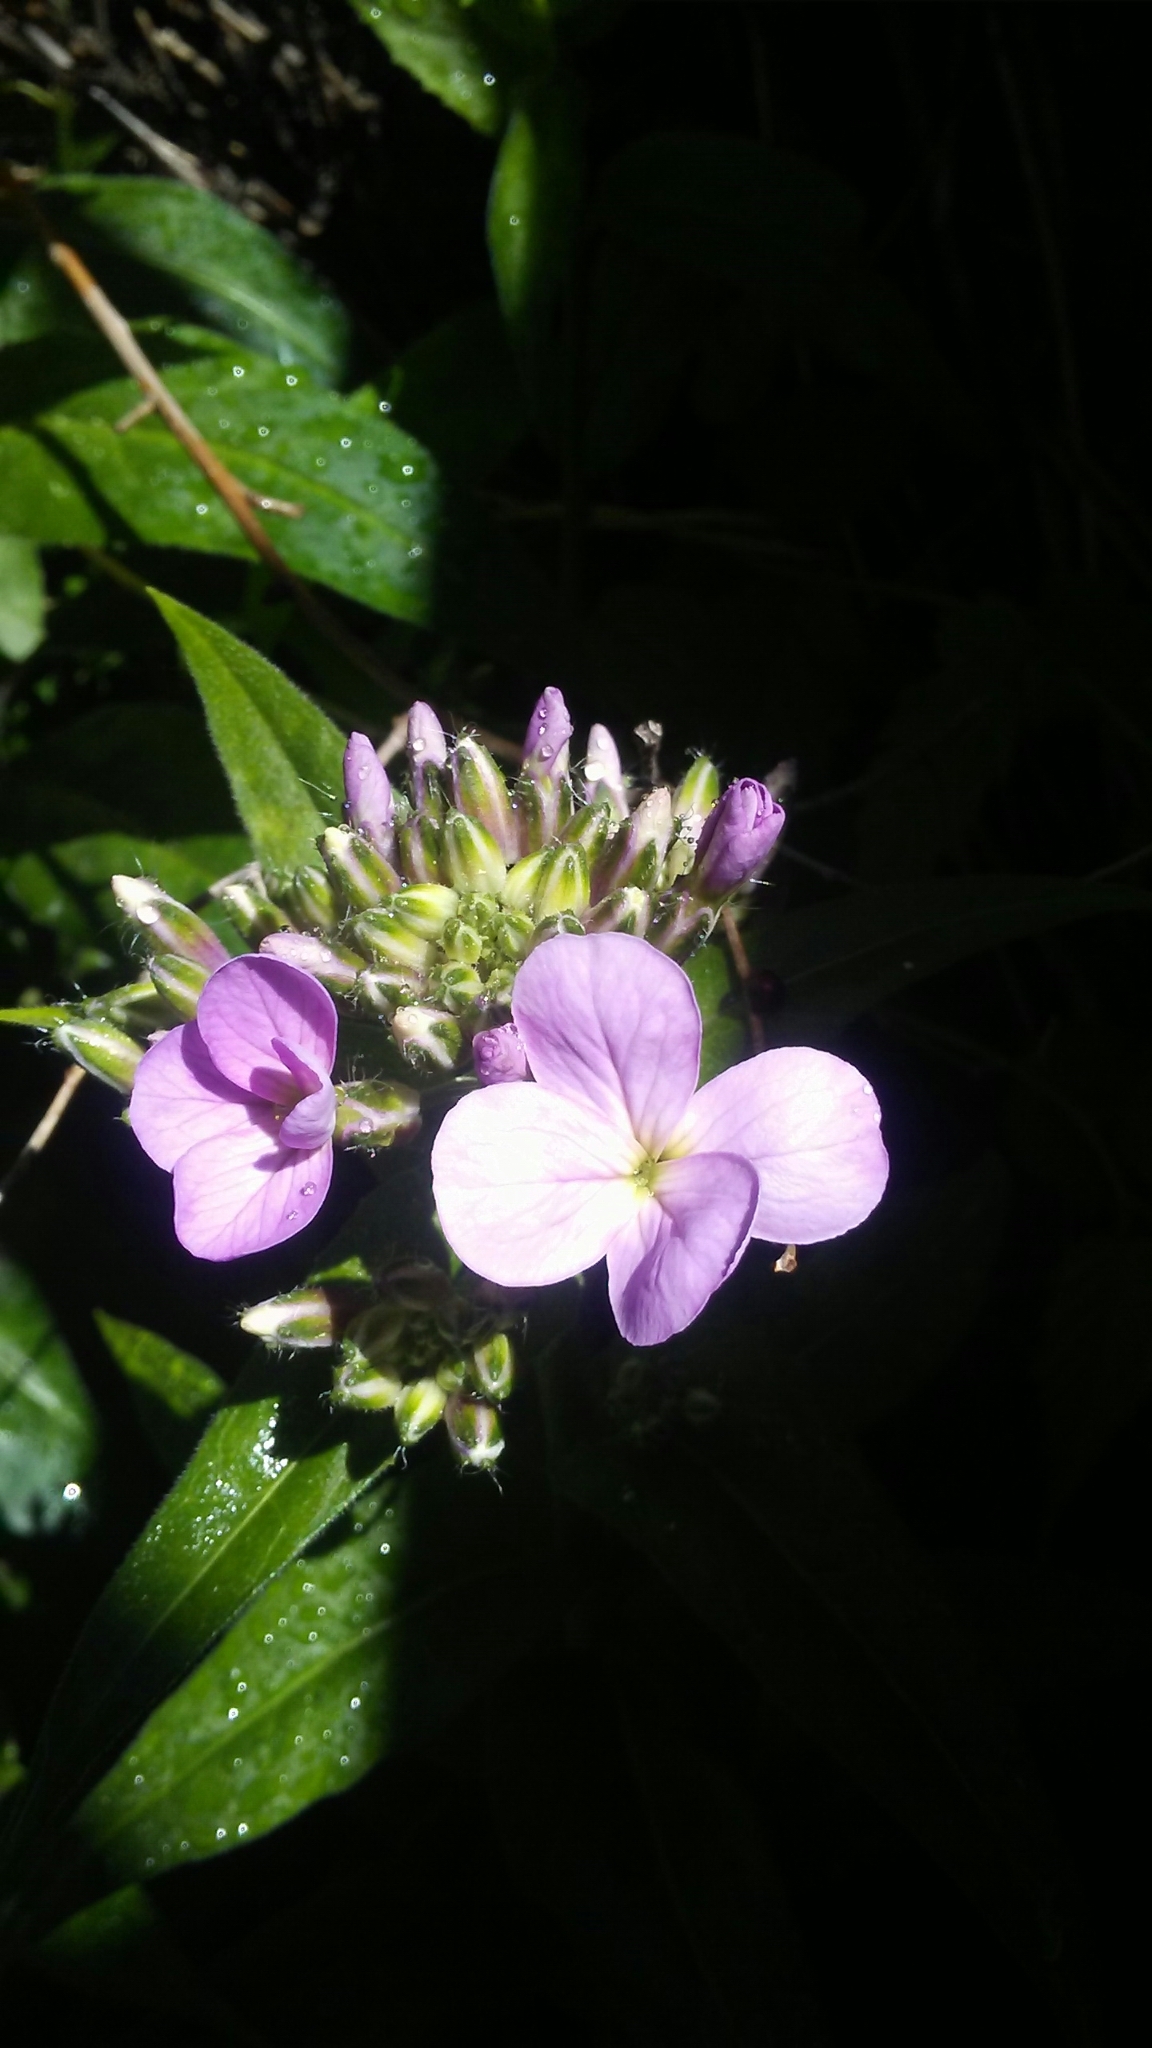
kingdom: Plantae
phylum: Tracheophyta
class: Magnoliopsida
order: Brassicales
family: Brassicaceae
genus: Hesperis
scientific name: Hesperis matronalis
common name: Dame's-violet
